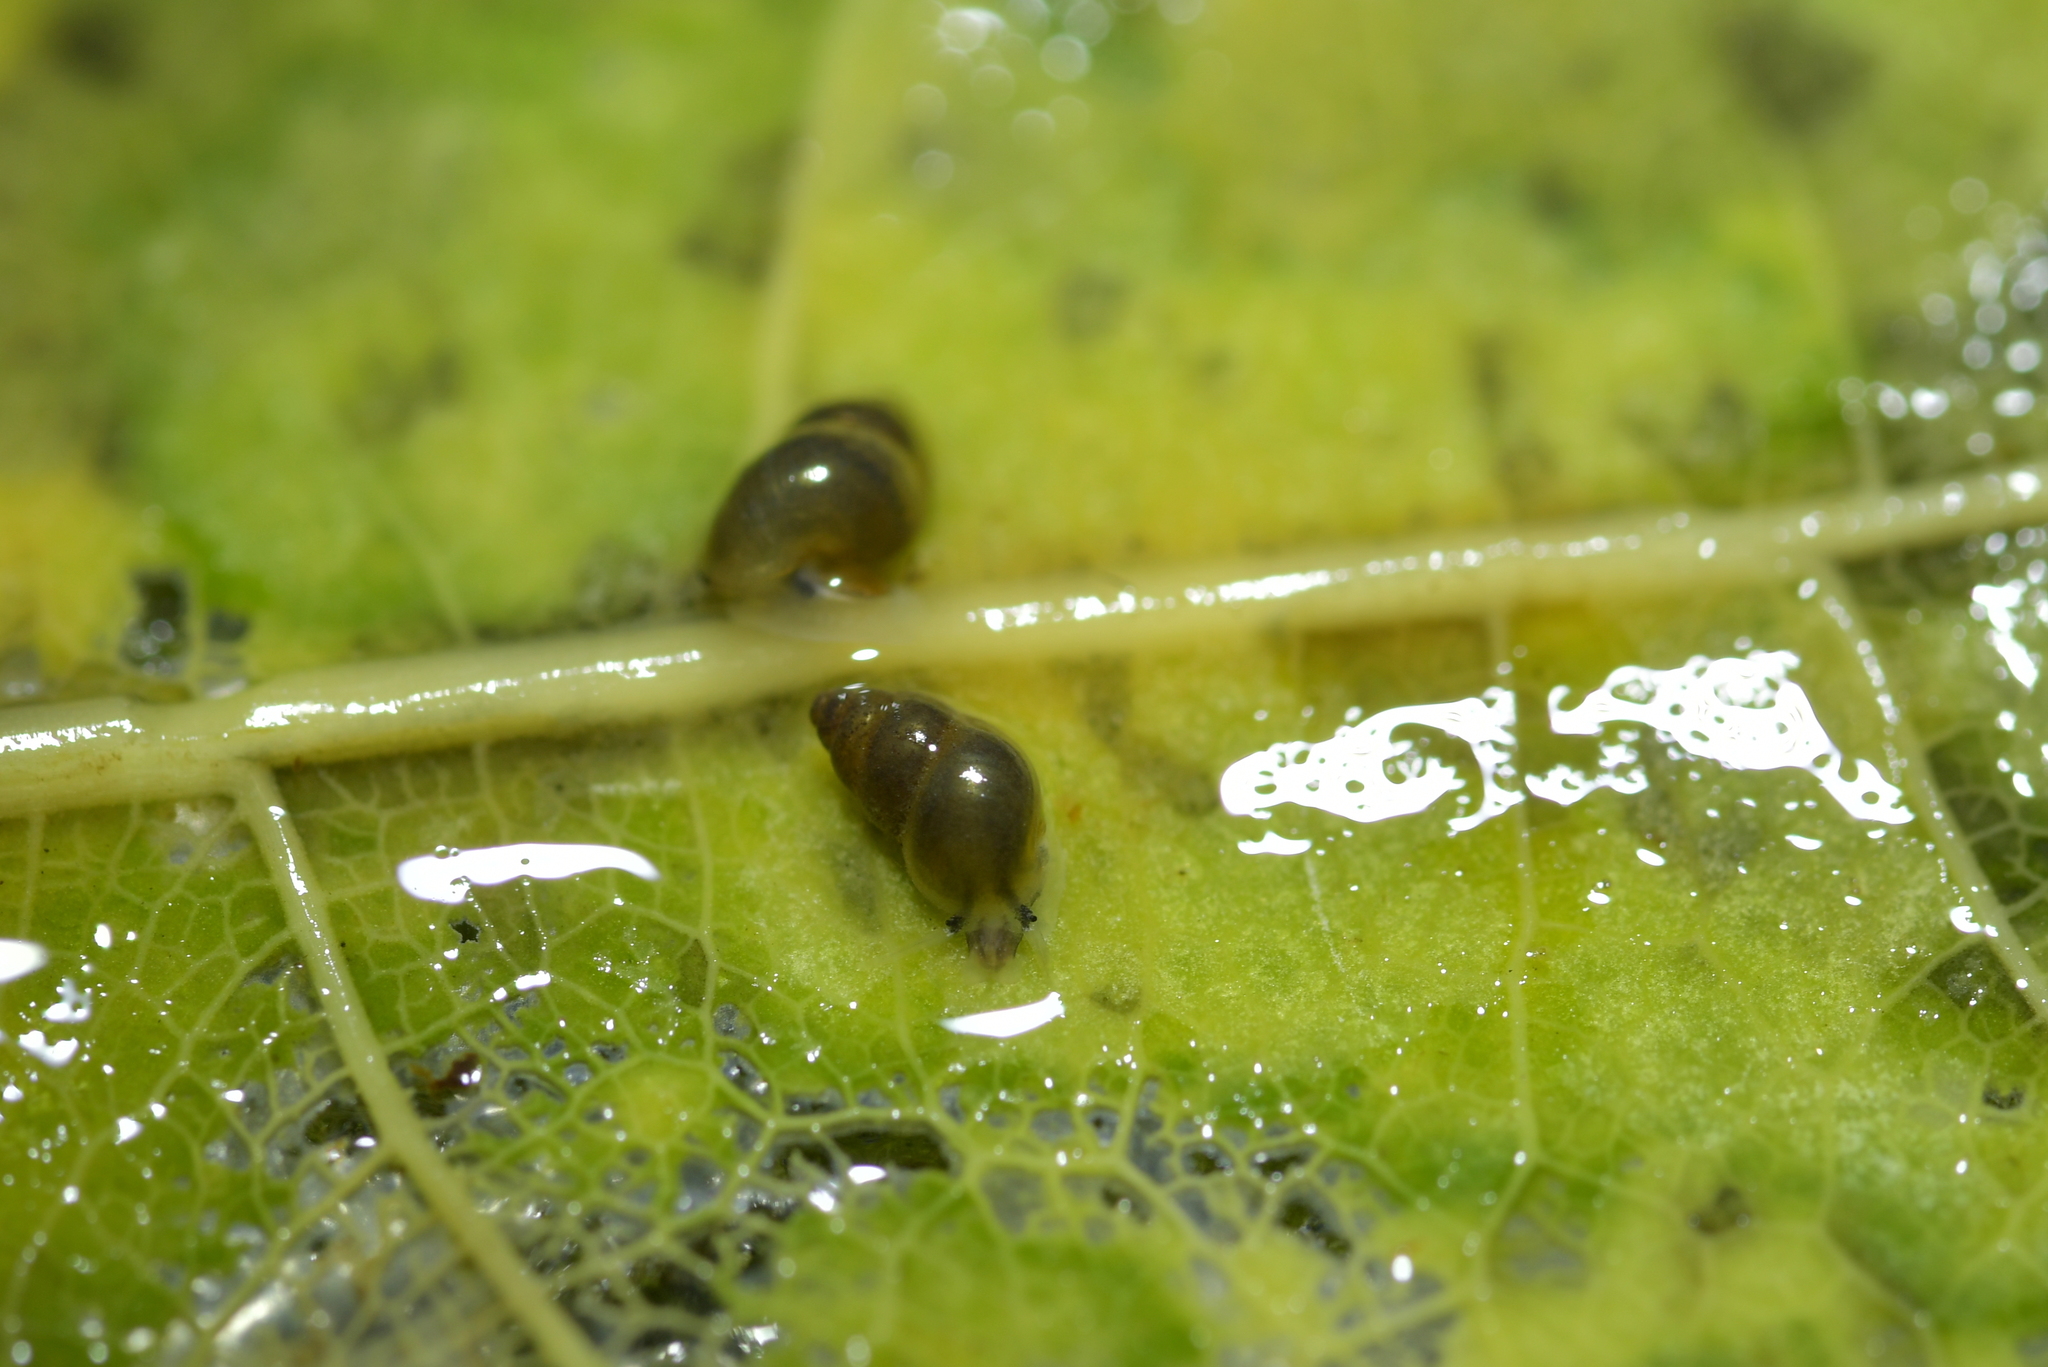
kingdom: Animalia
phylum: Mollusca
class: Gastropoda
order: Littorinimorpha
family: Tateidae
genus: Potamopyrgus
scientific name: Potamopyrgus antipodarum
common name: Jenkins' spire snail
